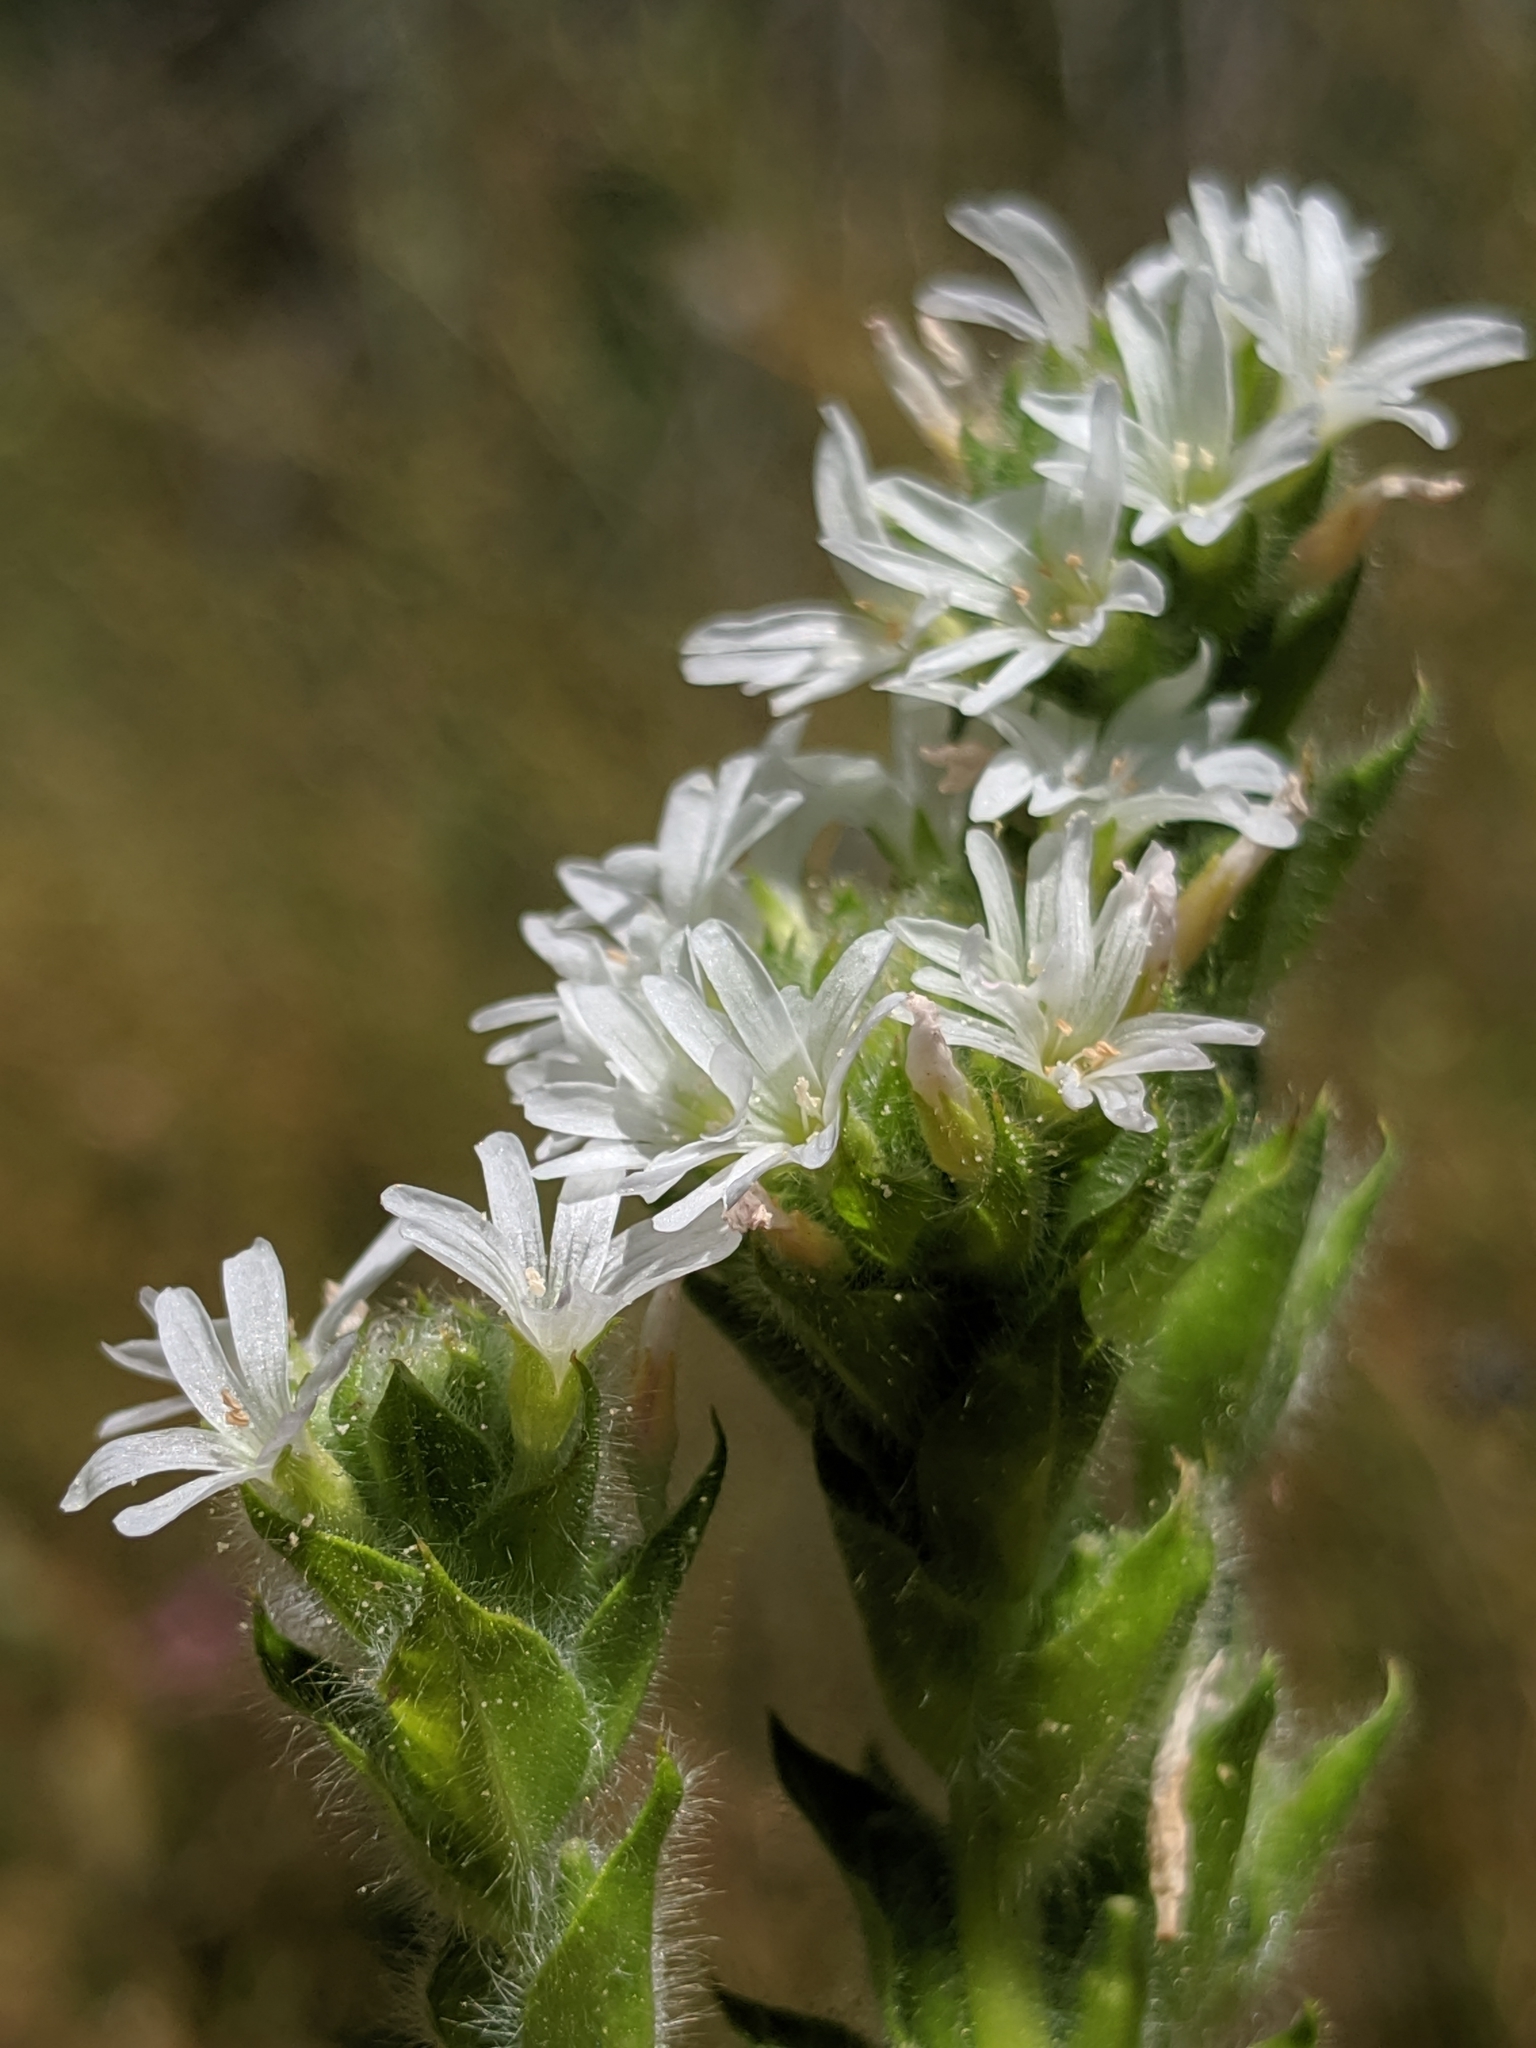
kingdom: Plantae
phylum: Tracheophyta
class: Magnoliopsida
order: Myrtales
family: Onagraceae
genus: Epilobium
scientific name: Epilobium densiflorum
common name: Dense spike-primrose
